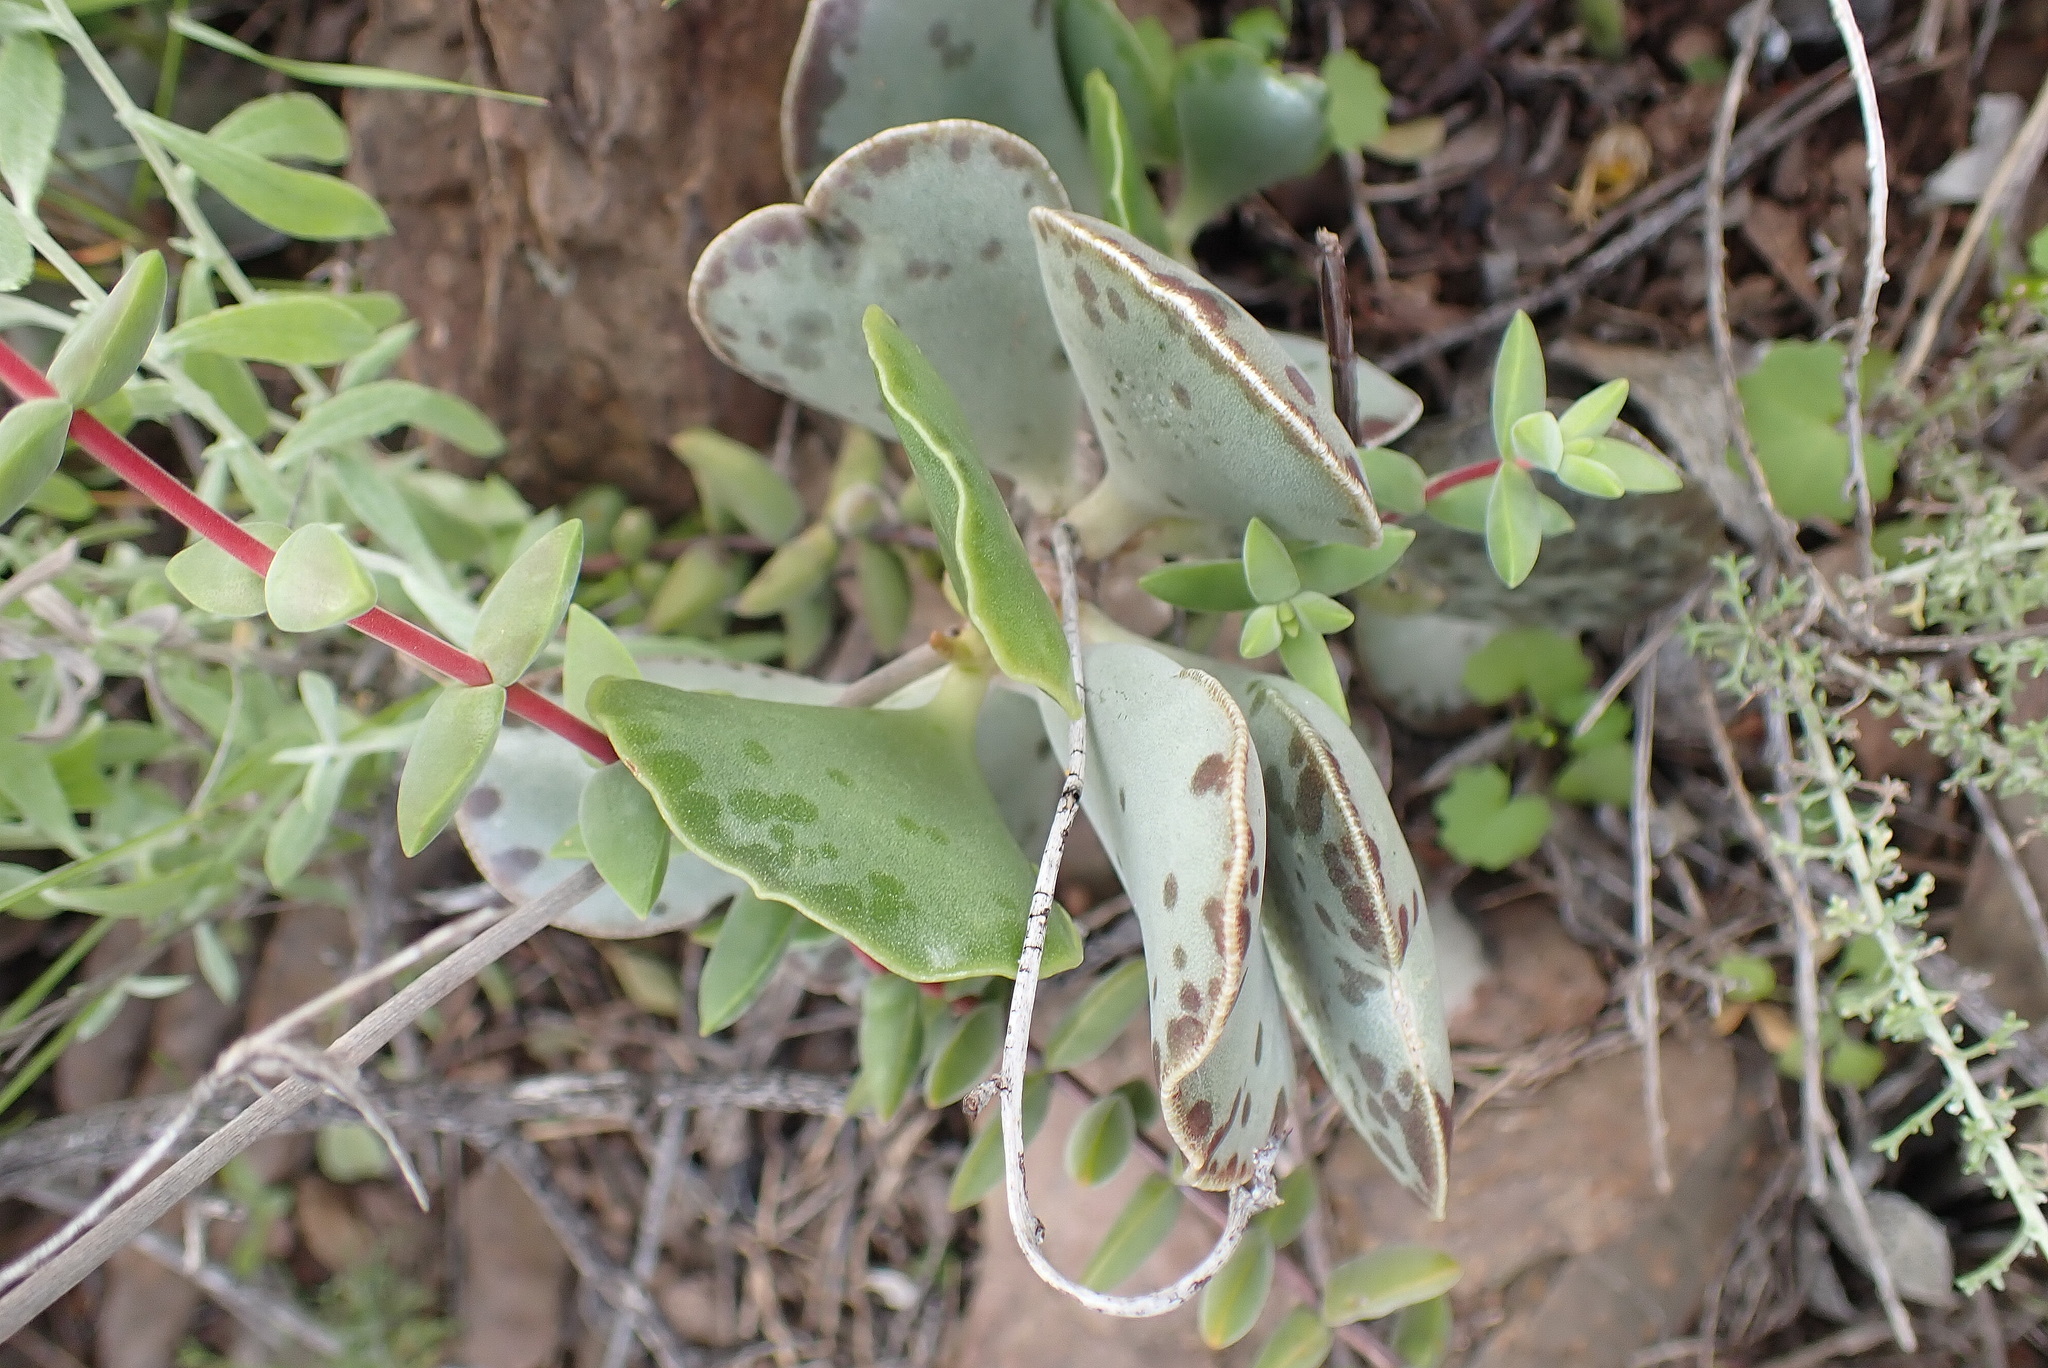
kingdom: Plantae
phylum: Tracheophyta
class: Magnoliopsida
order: Saxifragales
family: Crassulaceae
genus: Adromischus
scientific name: Adromischus triflorus
